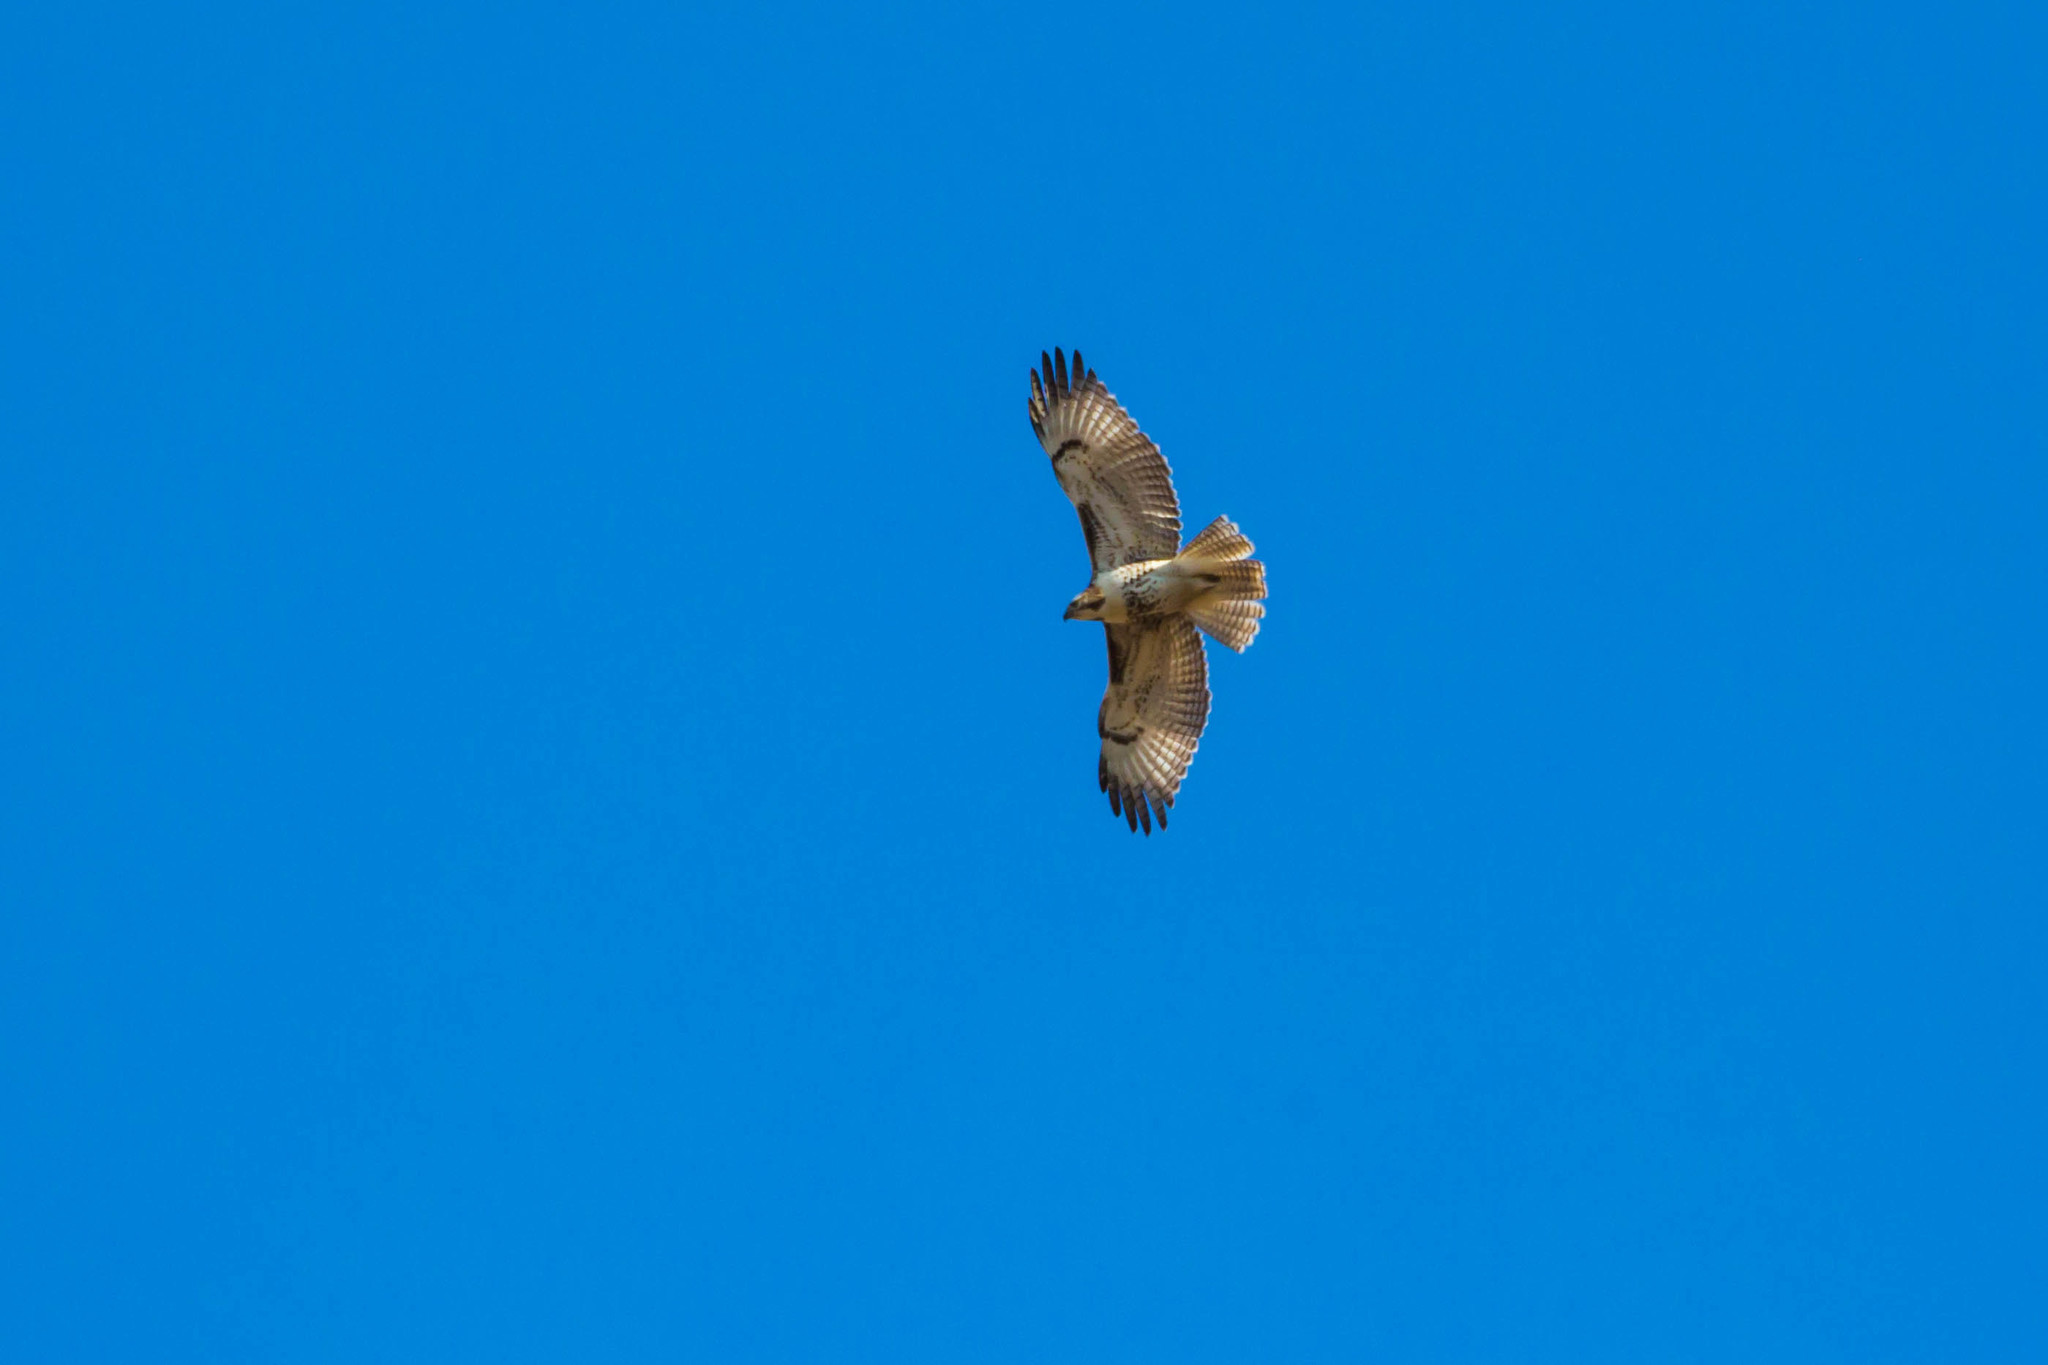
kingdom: Animalia
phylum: Chordata
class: Aves
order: Accipitriformes
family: Accipitridae
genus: Buteo
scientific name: Buteo jamaicensis
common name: Red-tailed hawk
